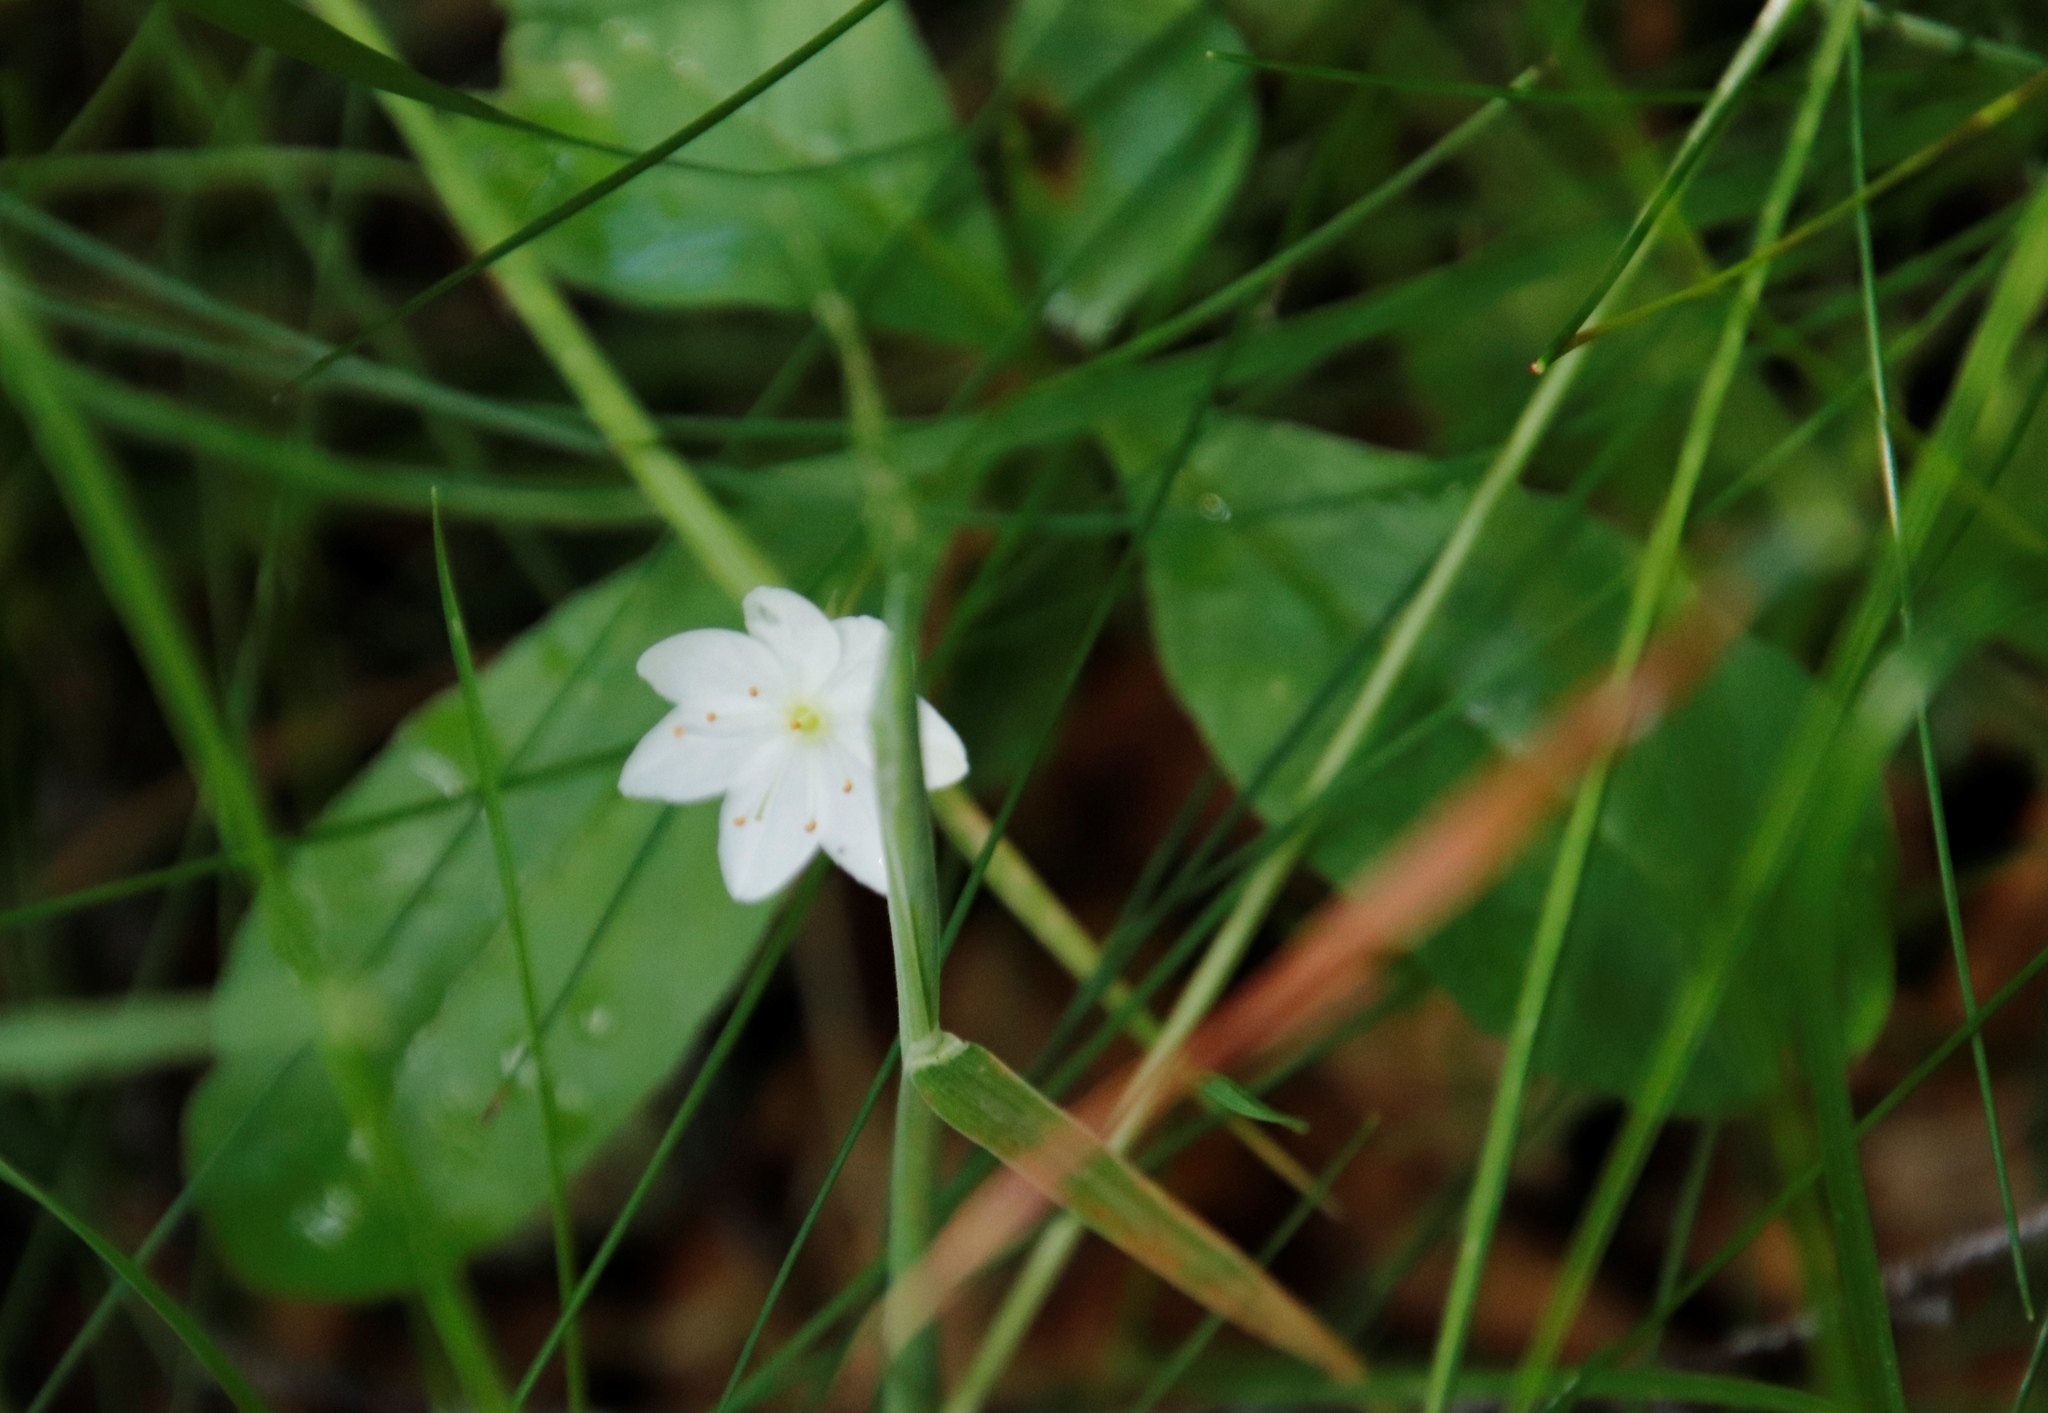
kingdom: Plantae
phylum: Tracheophyta
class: Magnoliopsida
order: Ericales
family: Primulaceae
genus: Lysimachia
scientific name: Lysimachia europaea
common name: Arctic starflower
